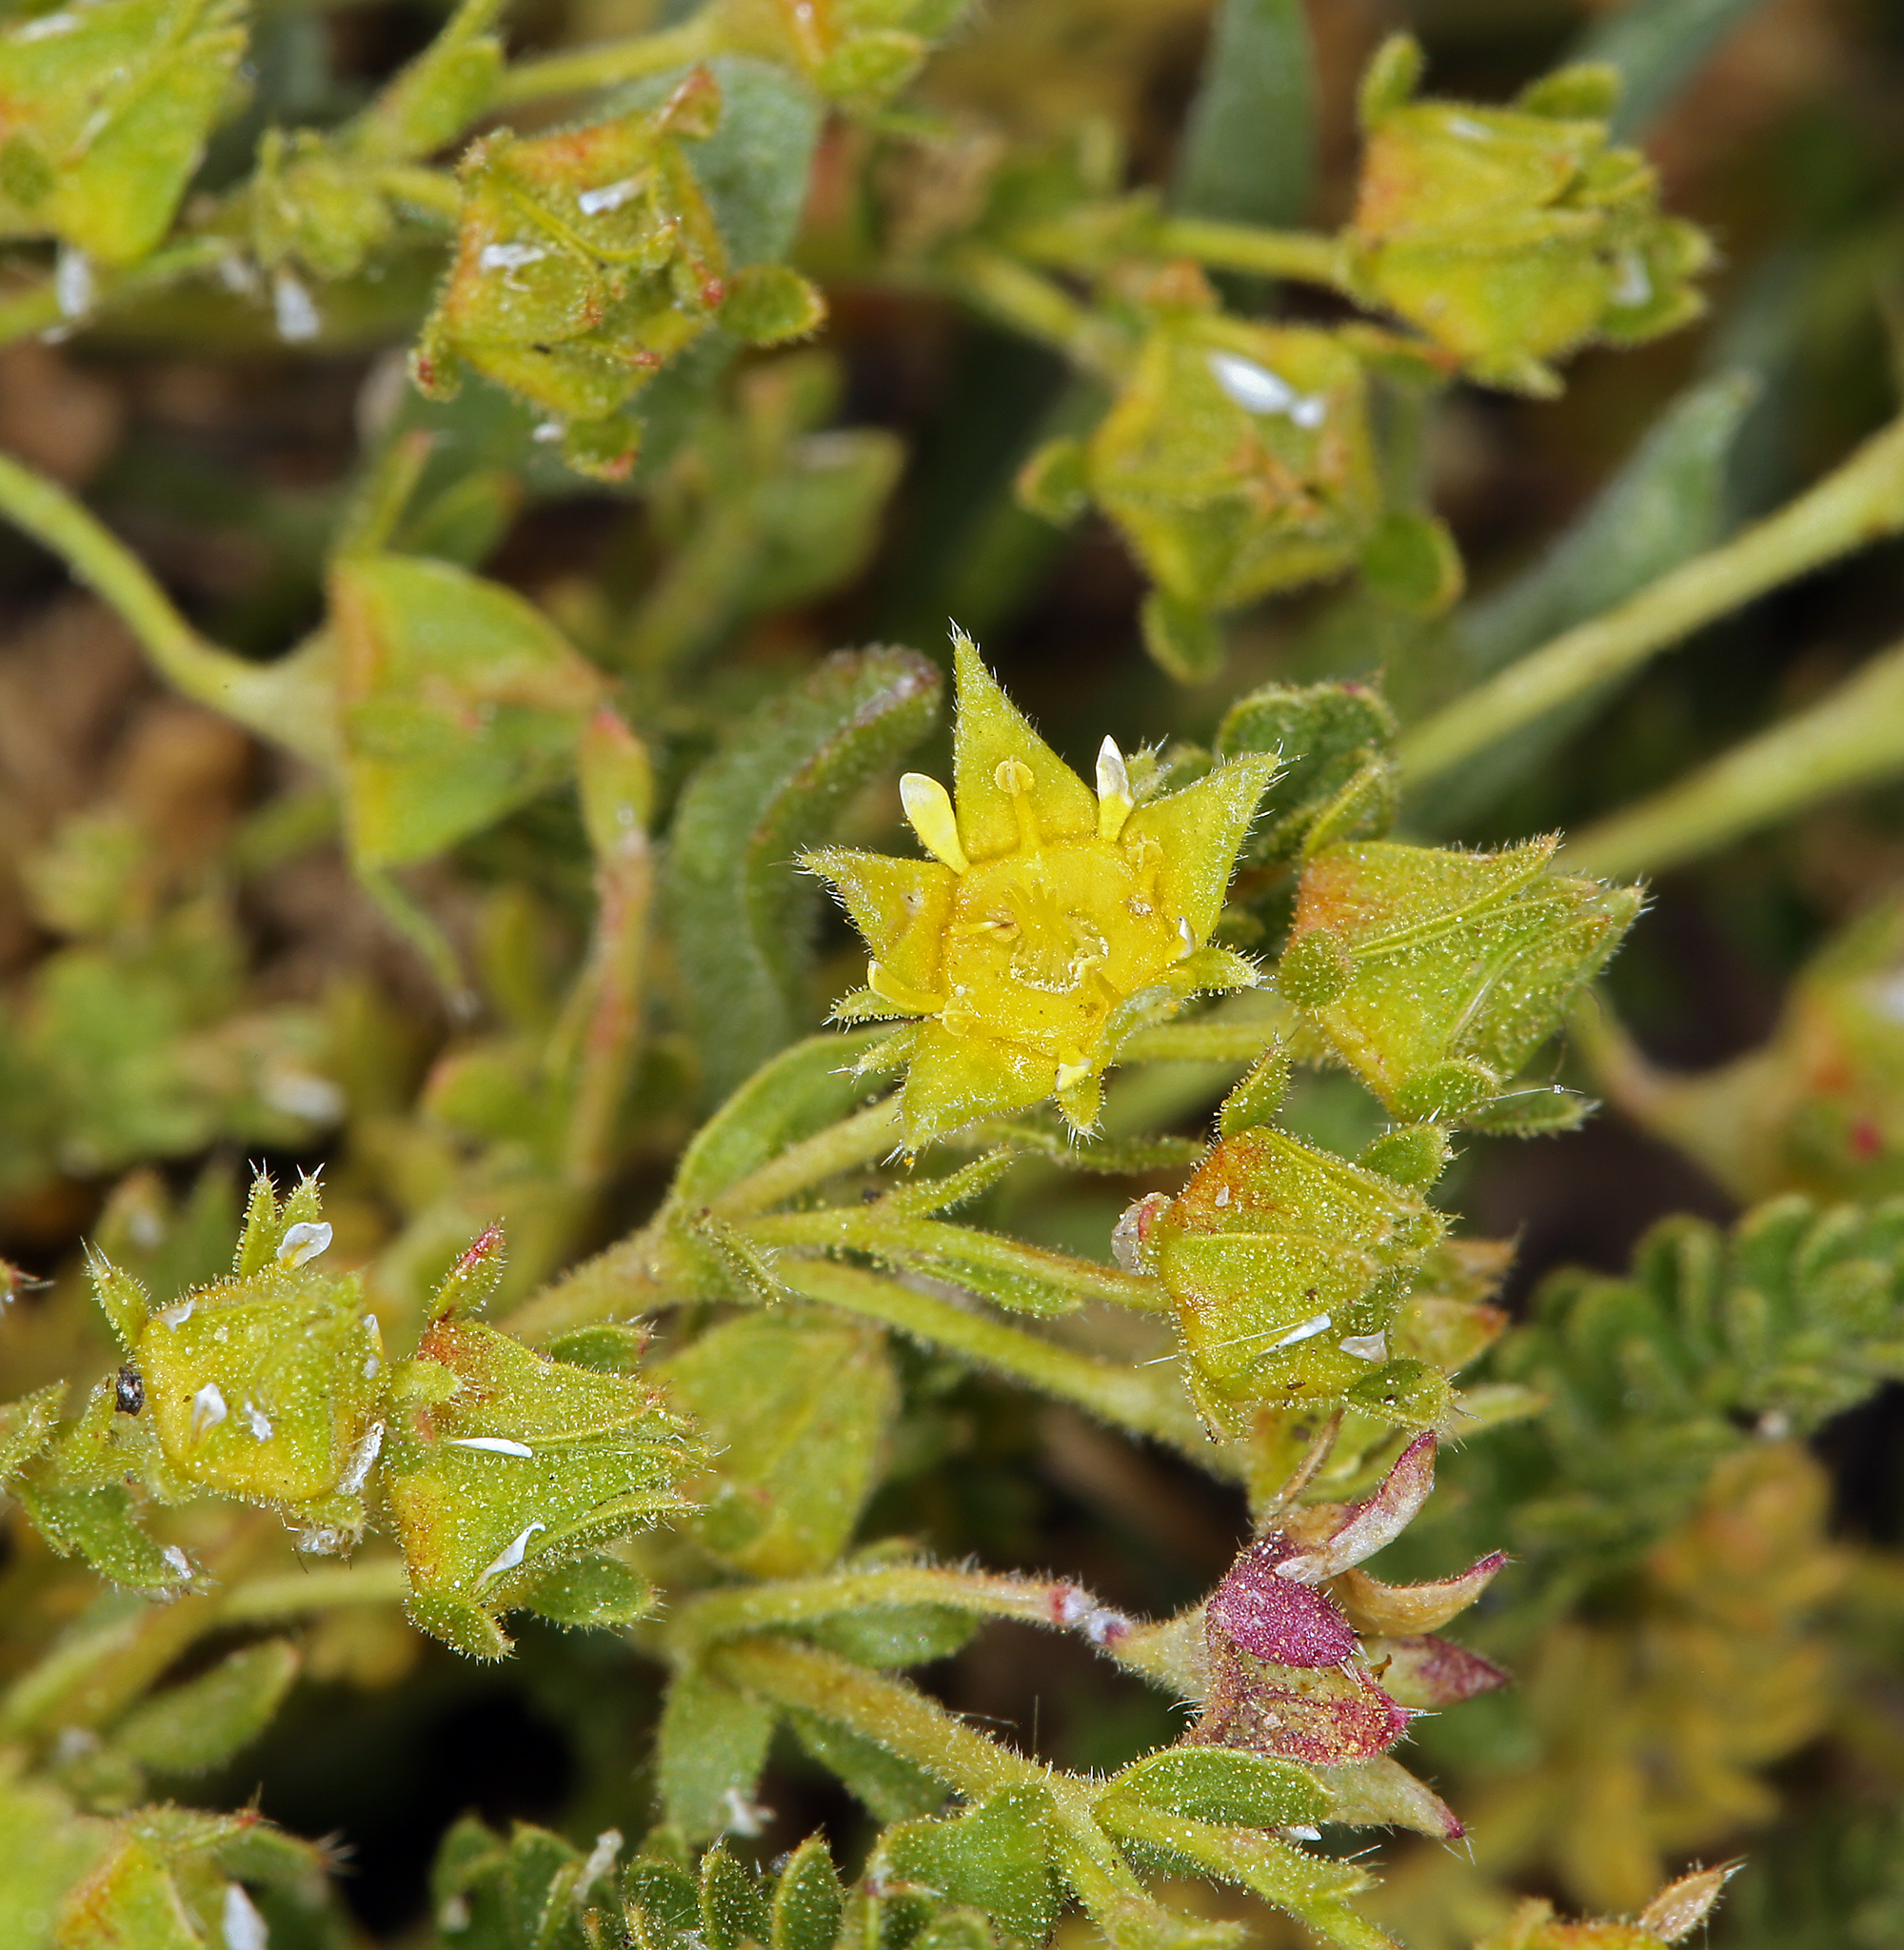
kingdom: Plantae
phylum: Tracheophyta
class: Magnoliopsida
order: Rosales
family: Rosaceae
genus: Potentilla
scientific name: Potentilla shockleyi
